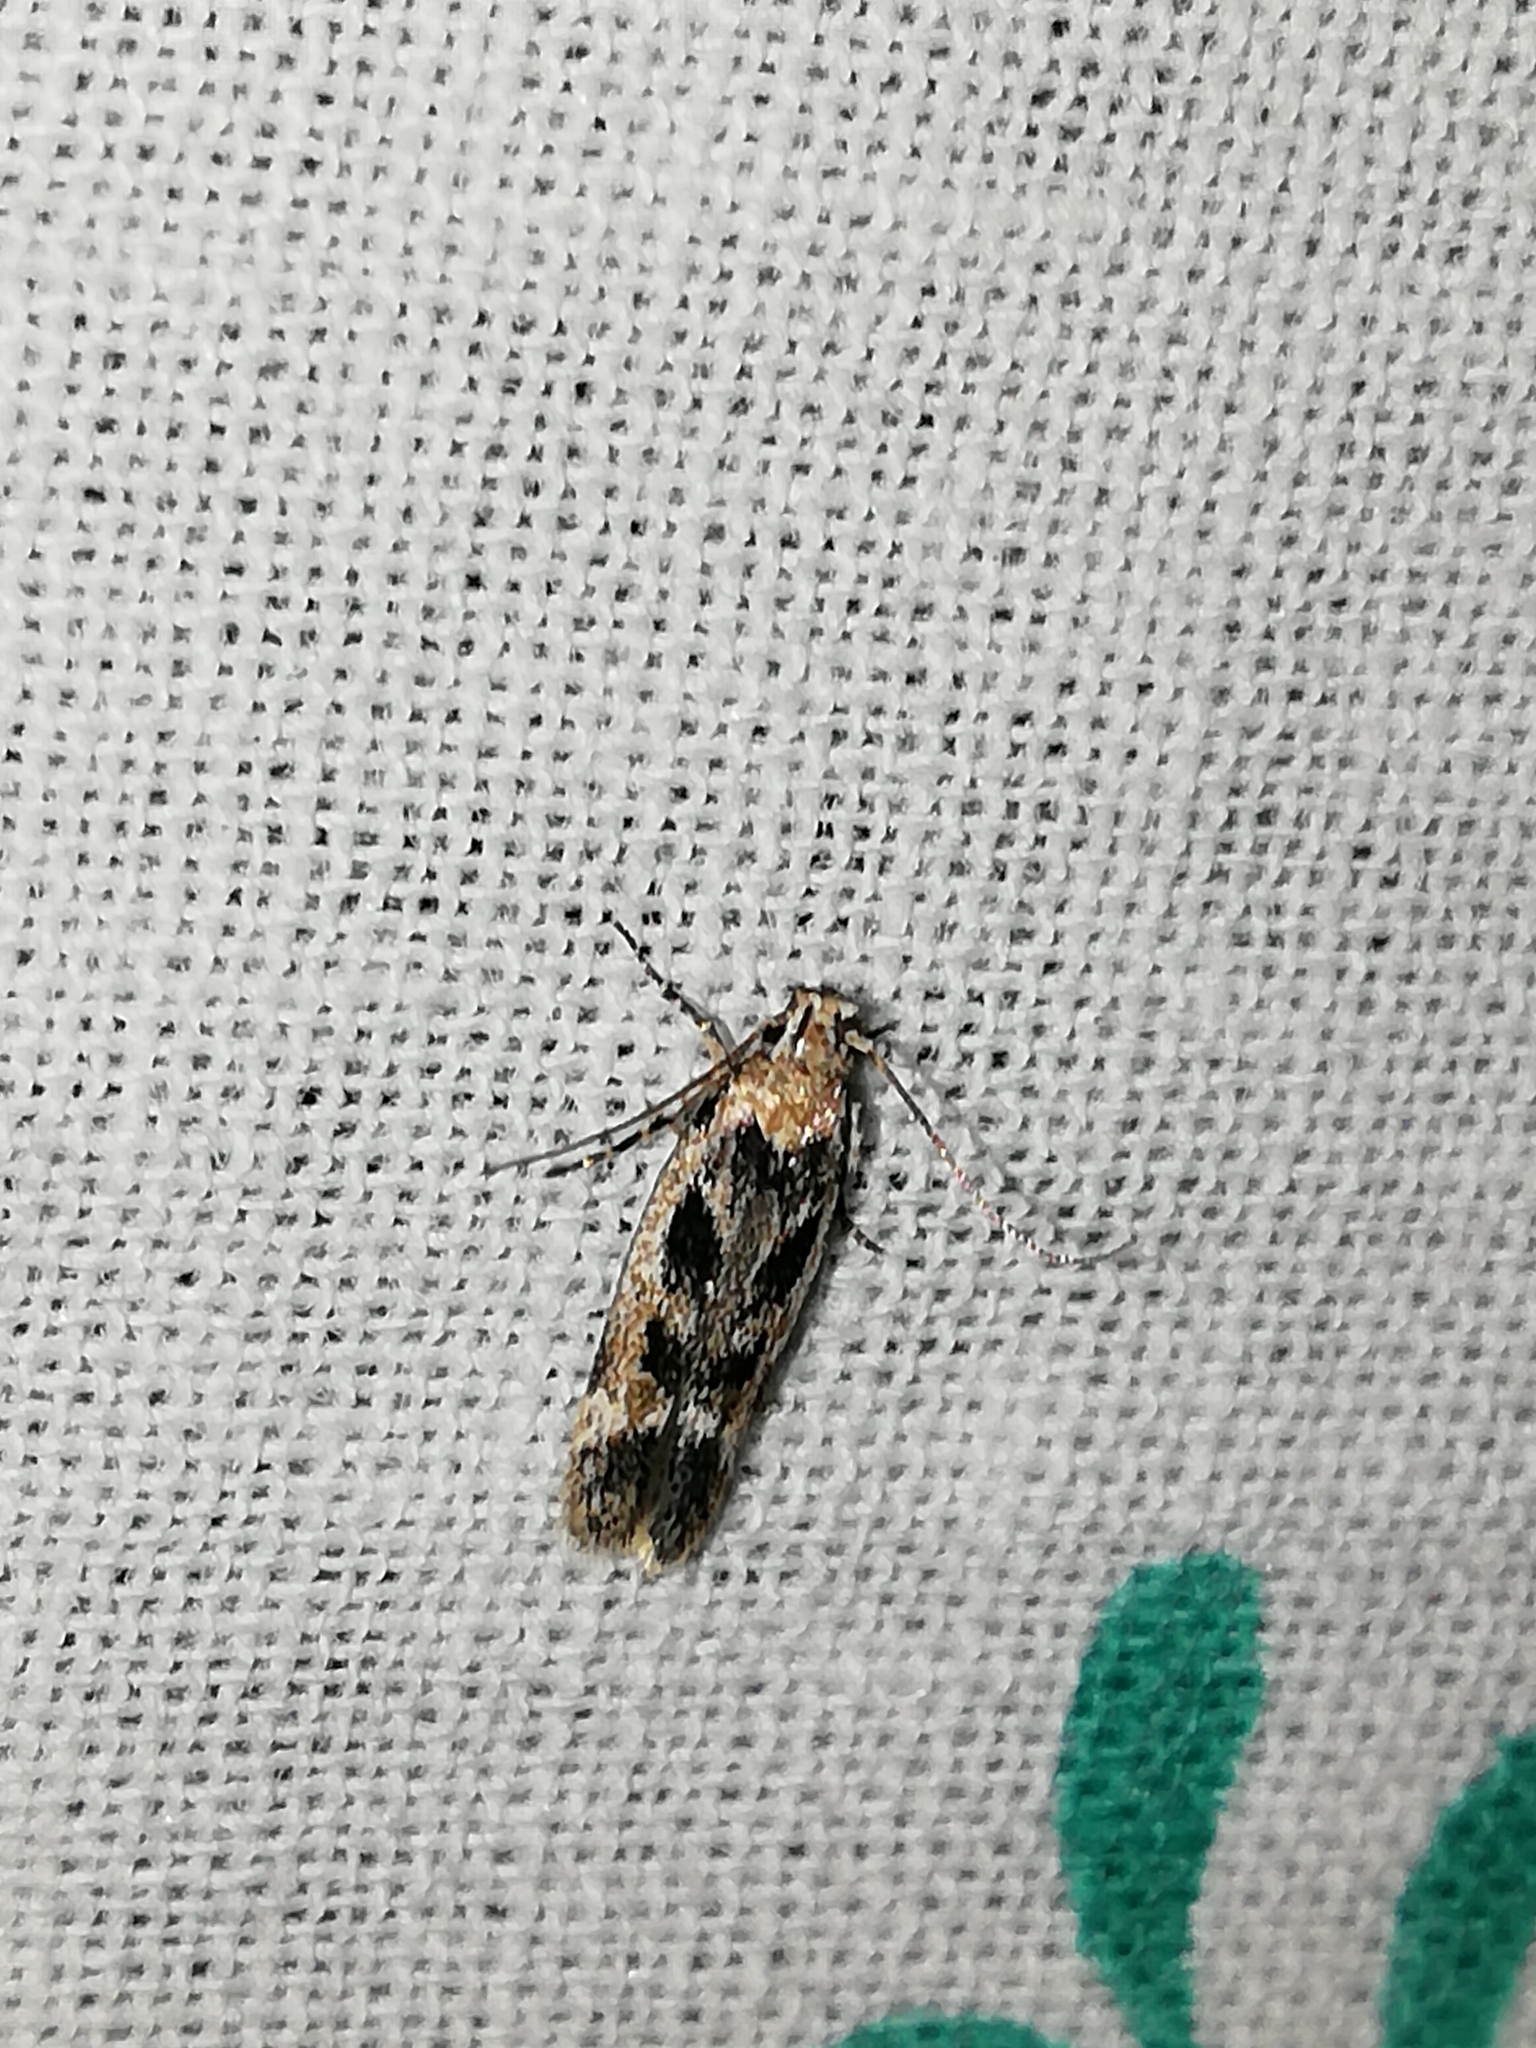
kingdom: Animalia
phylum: Arthropoda
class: Insecta
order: Lepidoptera
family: Gelechiidae
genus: Caryocolum
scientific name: Caryocolum fischerella
